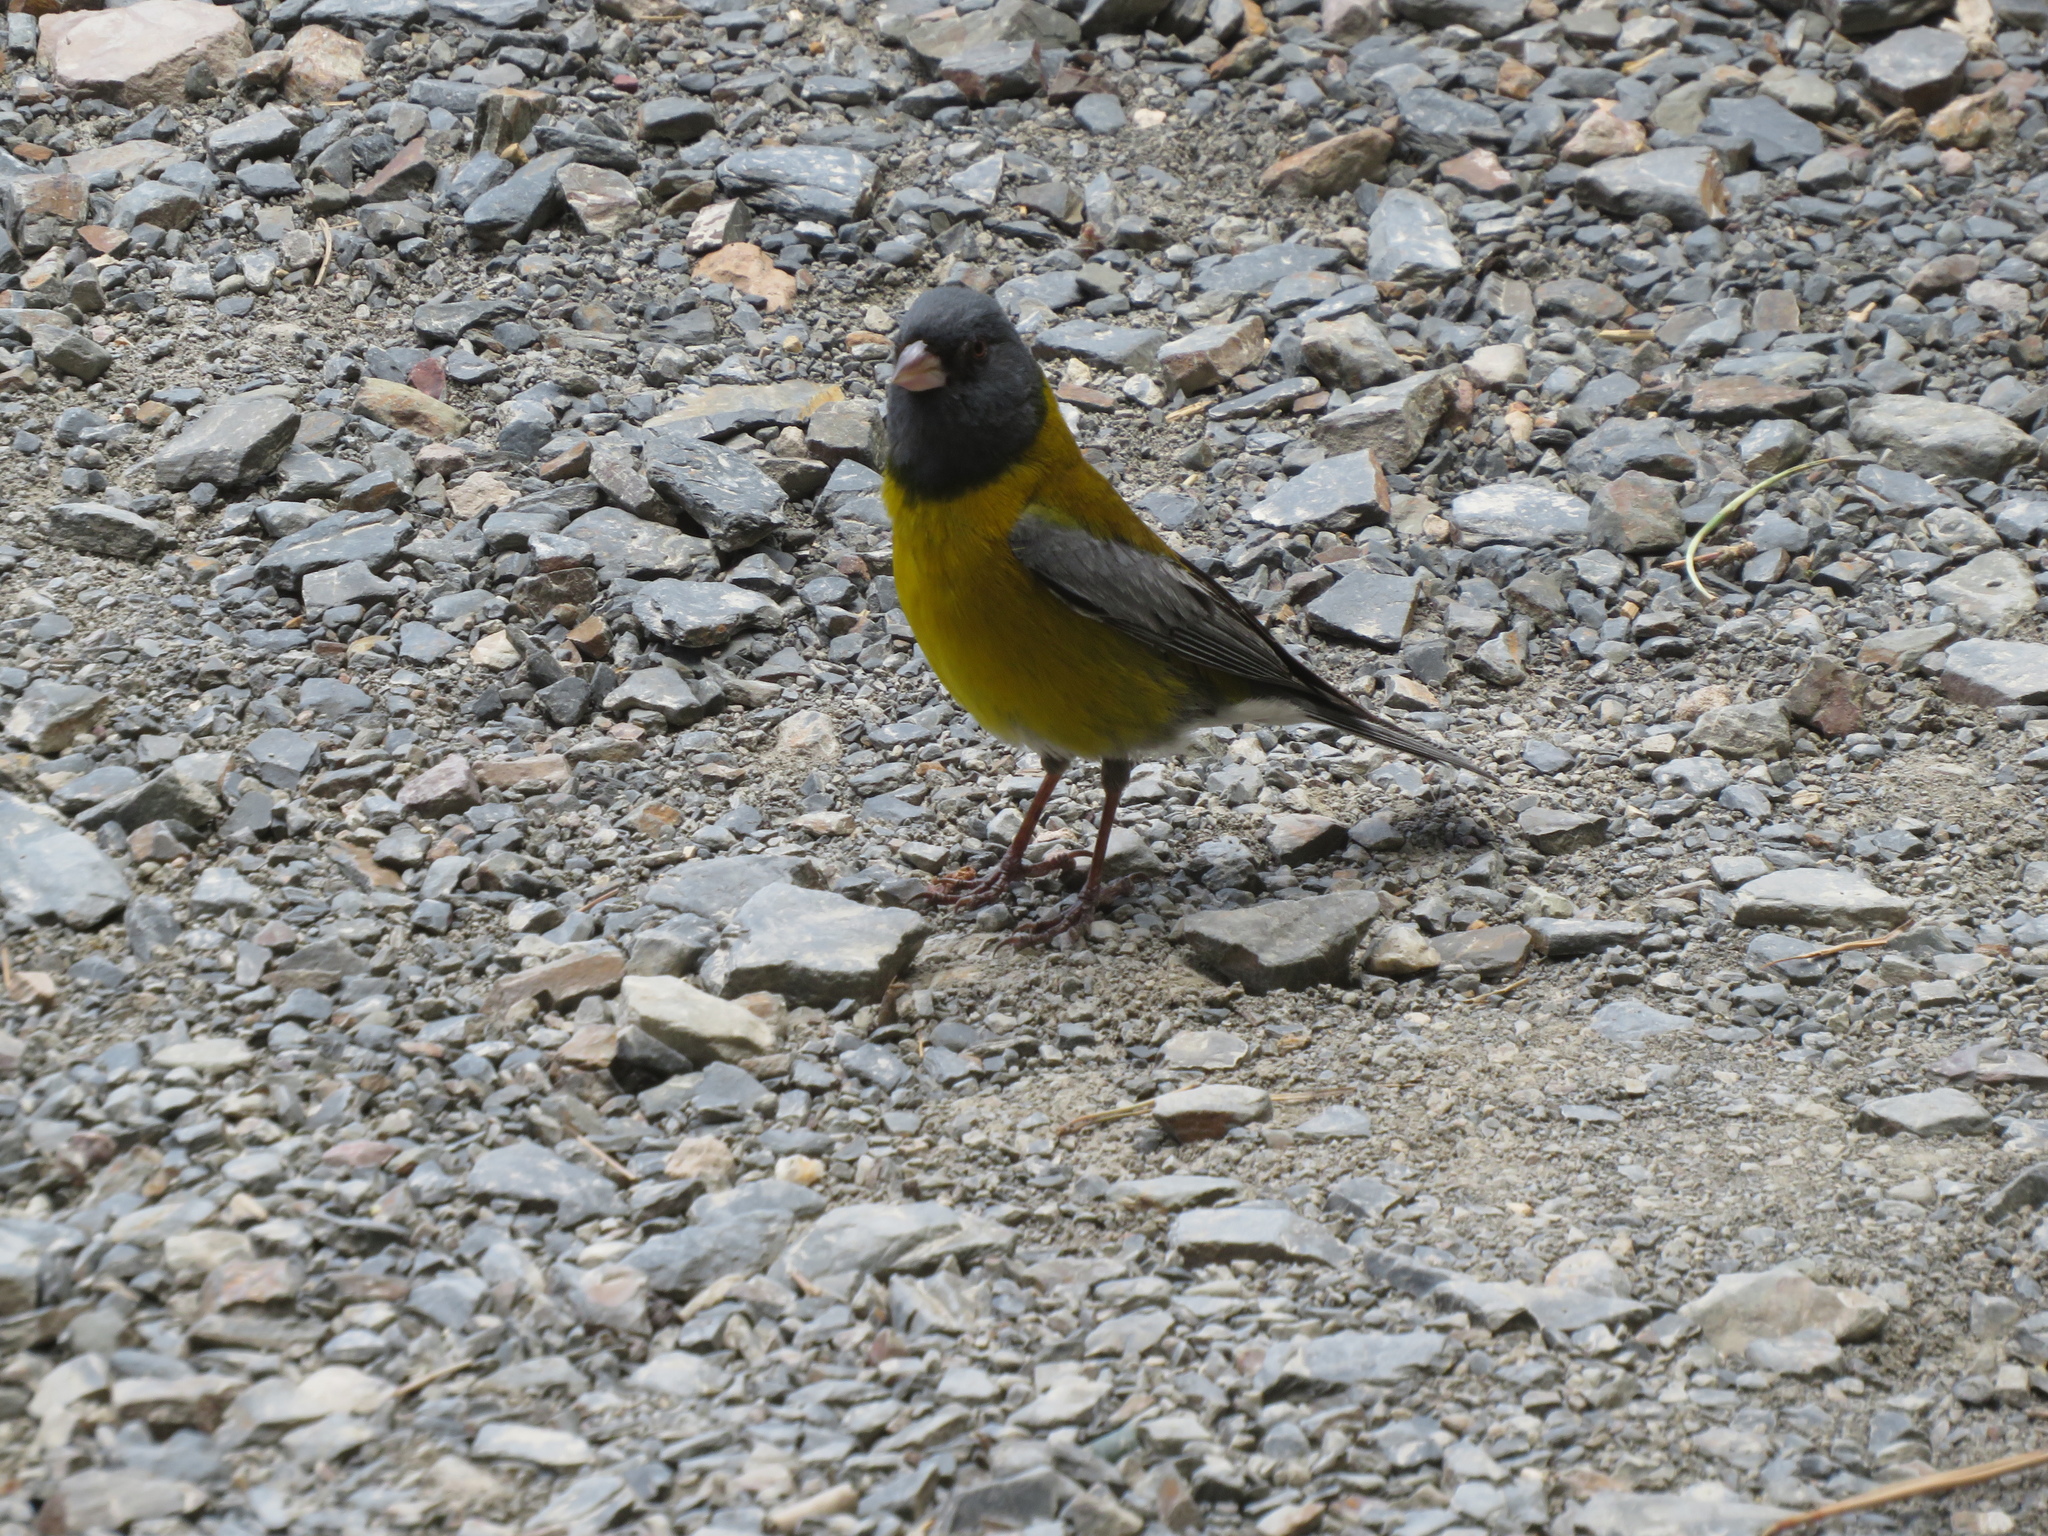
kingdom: Animalia
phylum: Chordata
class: Aves
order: Passeriformes
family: Thraupidae
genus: Phrygilus
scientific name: Phrygilus gayi
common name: Grey-hooded sierra finch
